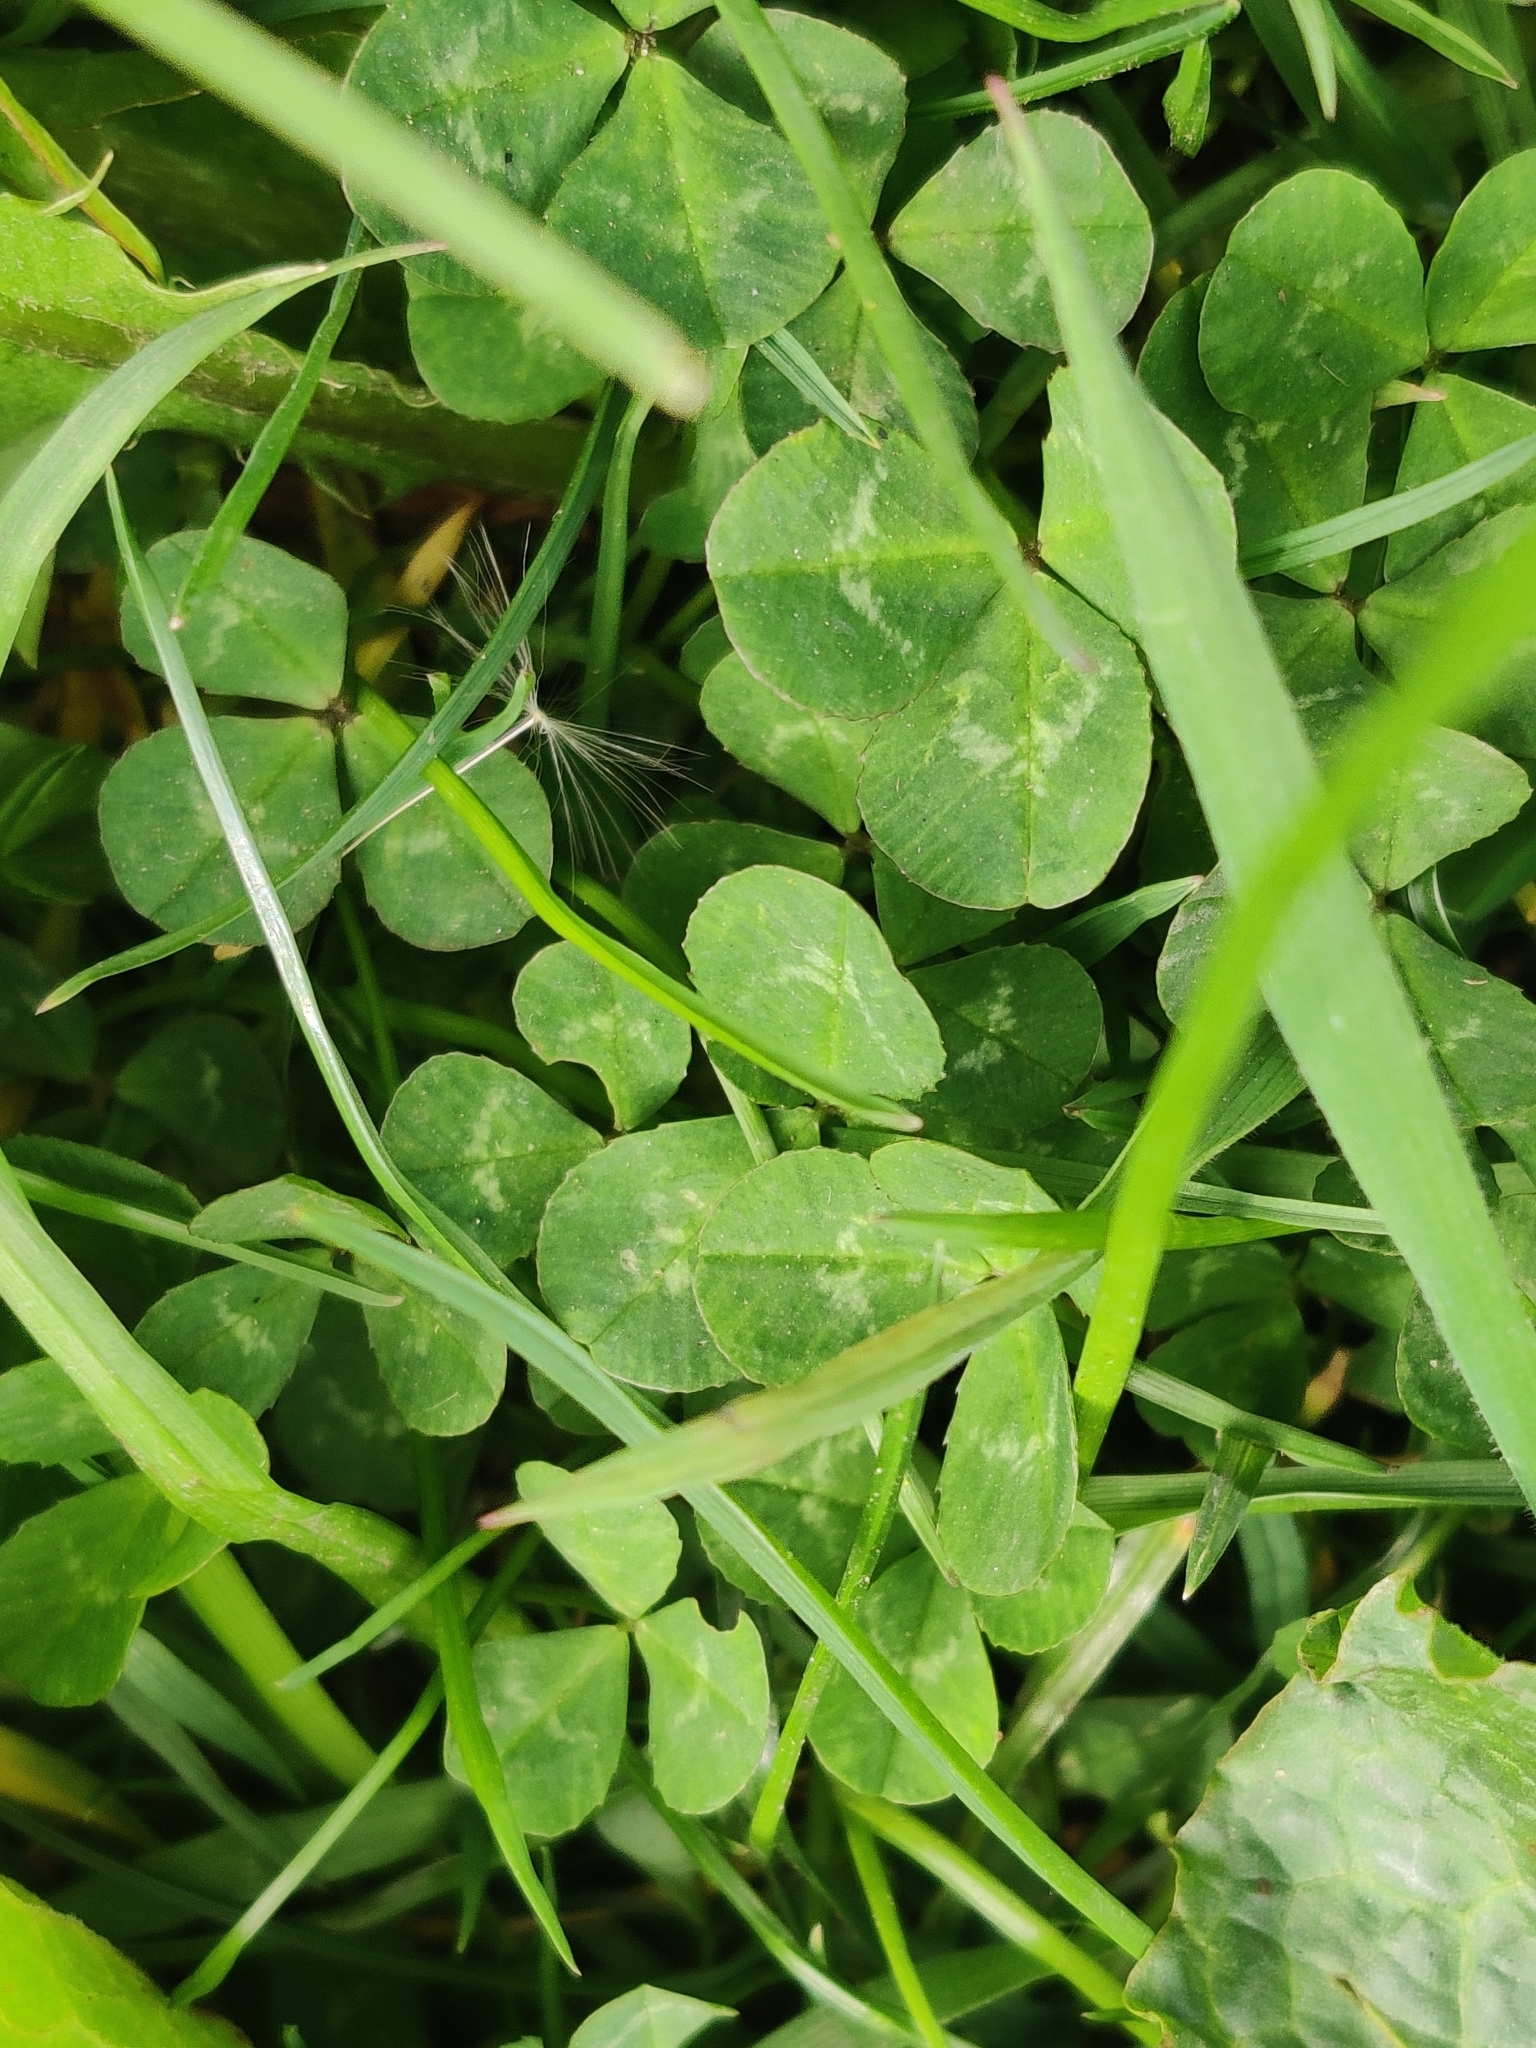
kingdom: Plantae
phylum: Tracheophyta
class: Magnoliopsida
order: Fabales
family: Fabaceae
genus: Trifolium
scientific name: Trifolium repens
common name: White clover
